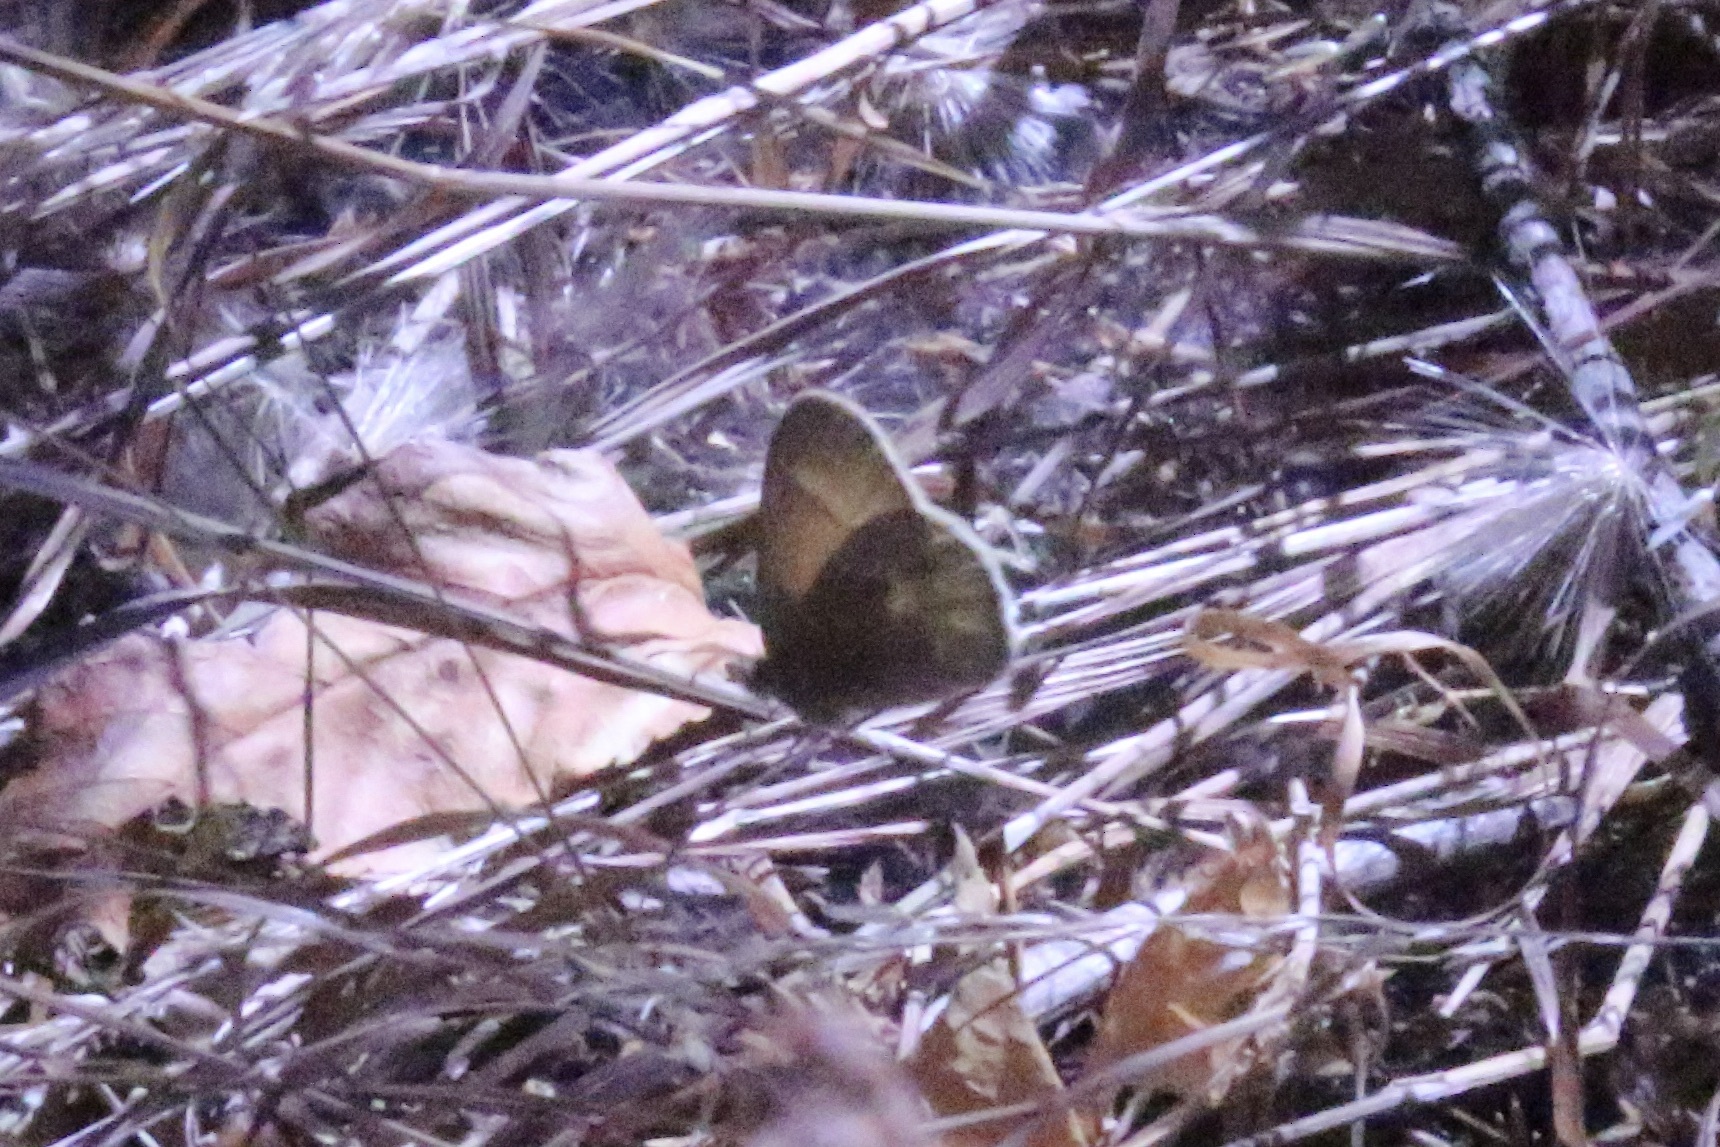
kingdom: Animalia
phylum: Arthropoda
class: Insecta
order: Lepidoptera
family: Nymphalidae
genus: Coenonympha
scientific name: Coenonympha california
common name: Common ringlet
